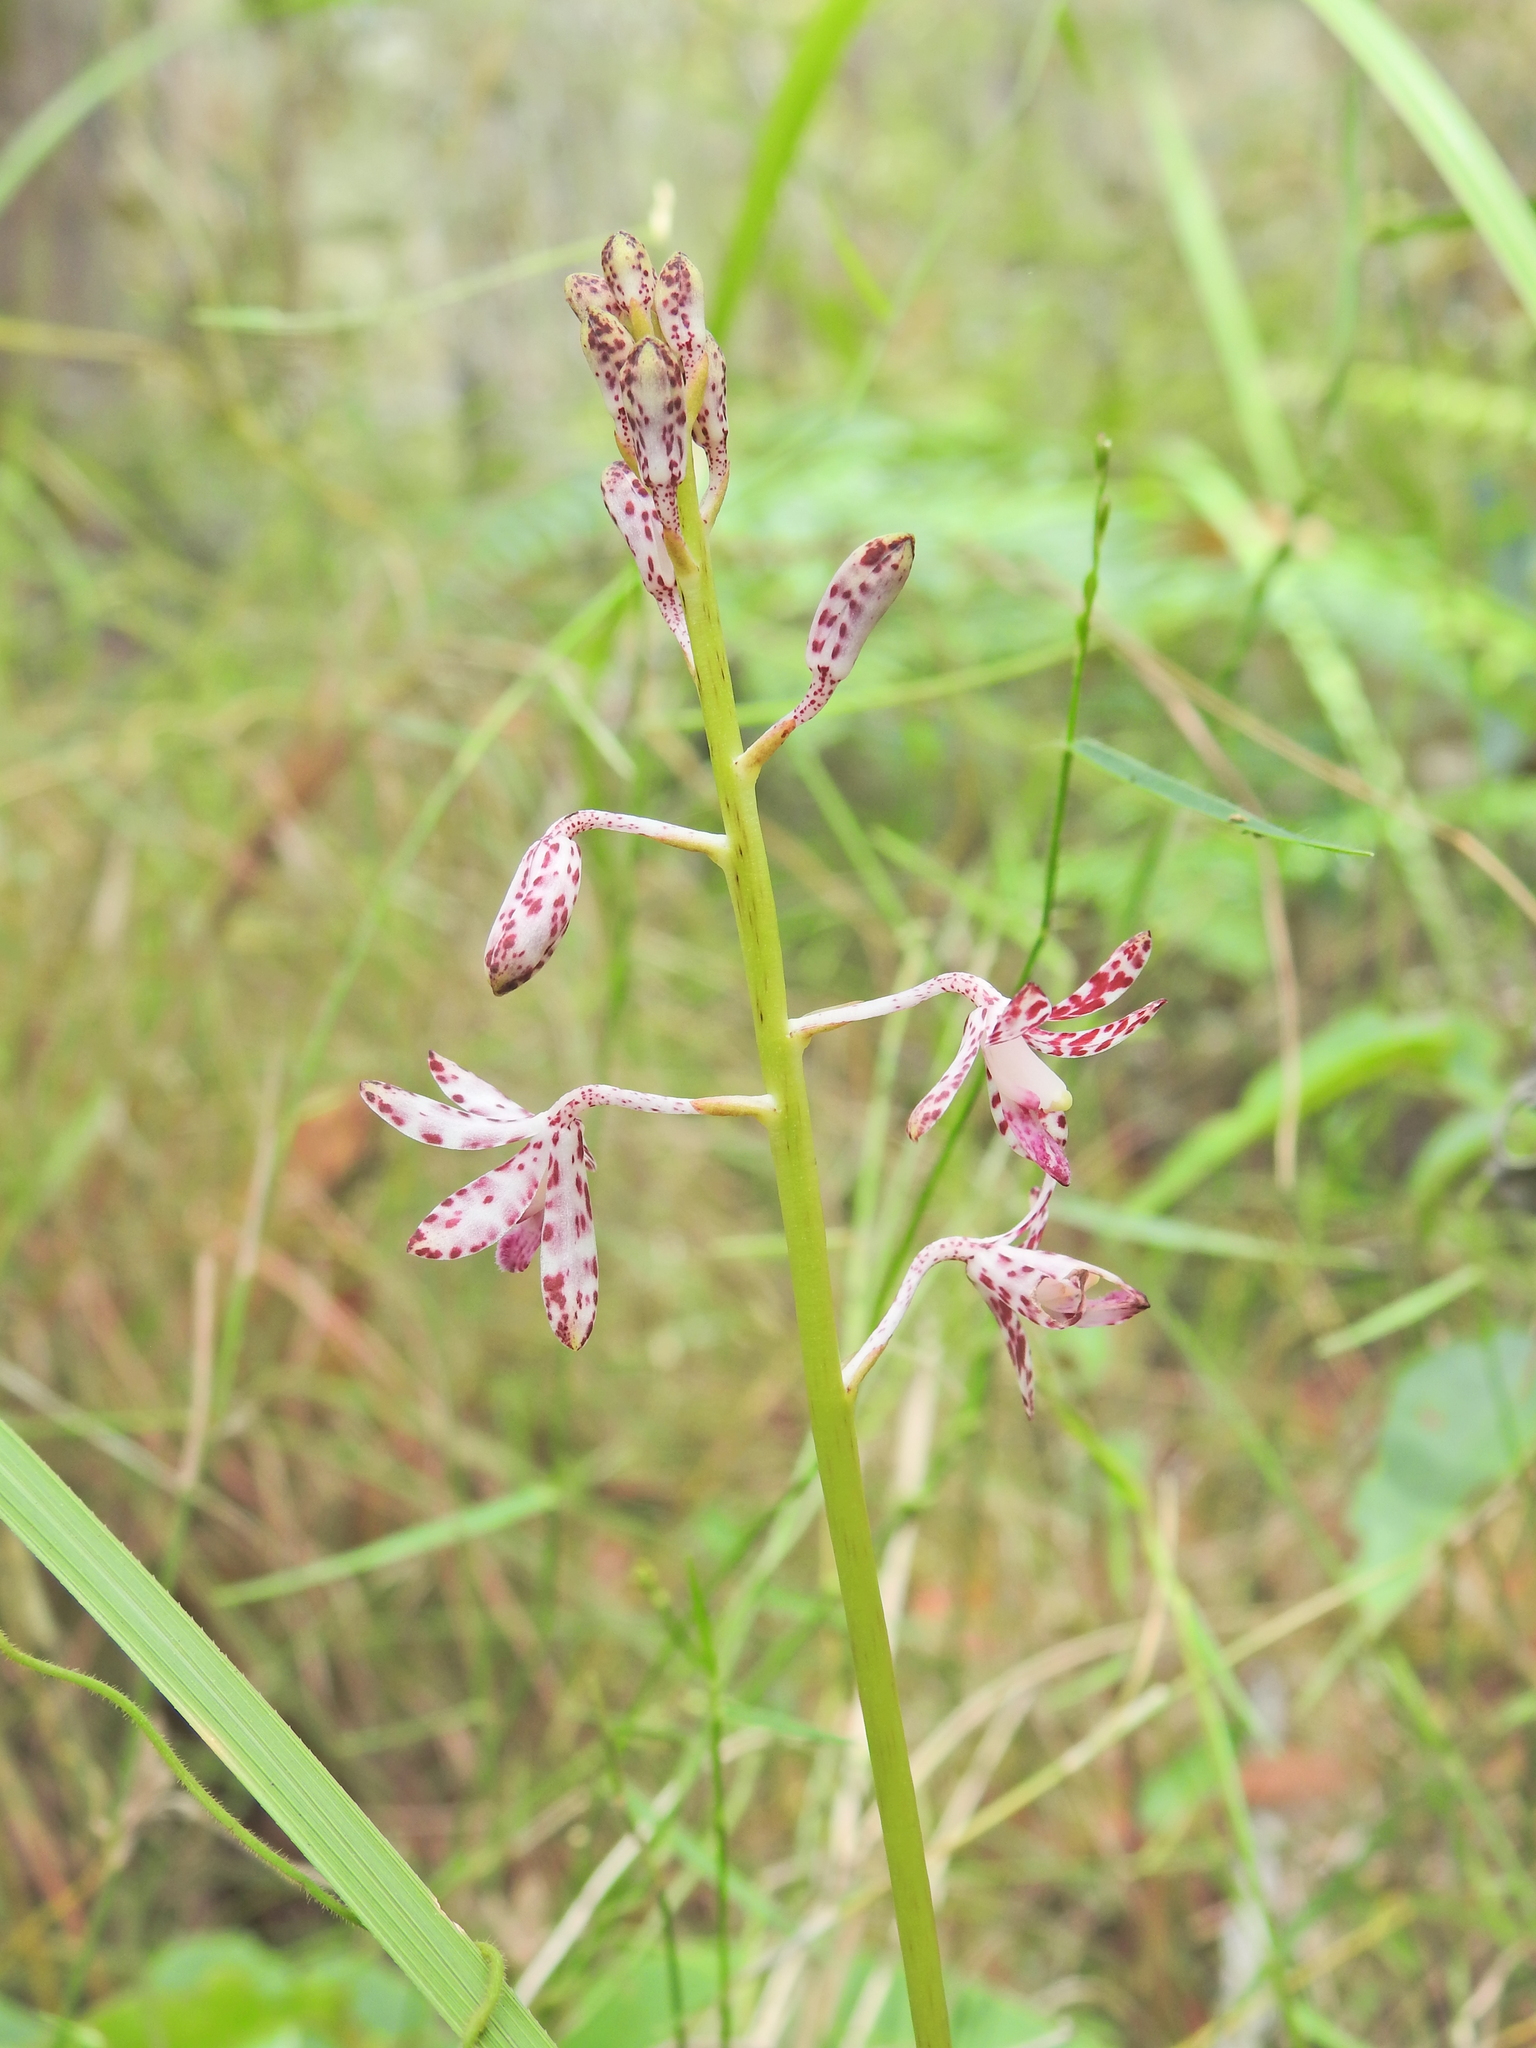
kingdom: Plantae
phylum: Tracheophyta
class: Liliopsida
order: Asparagales
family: Orchidaceae
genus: Dipodium
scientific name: Dipodium variegatum
